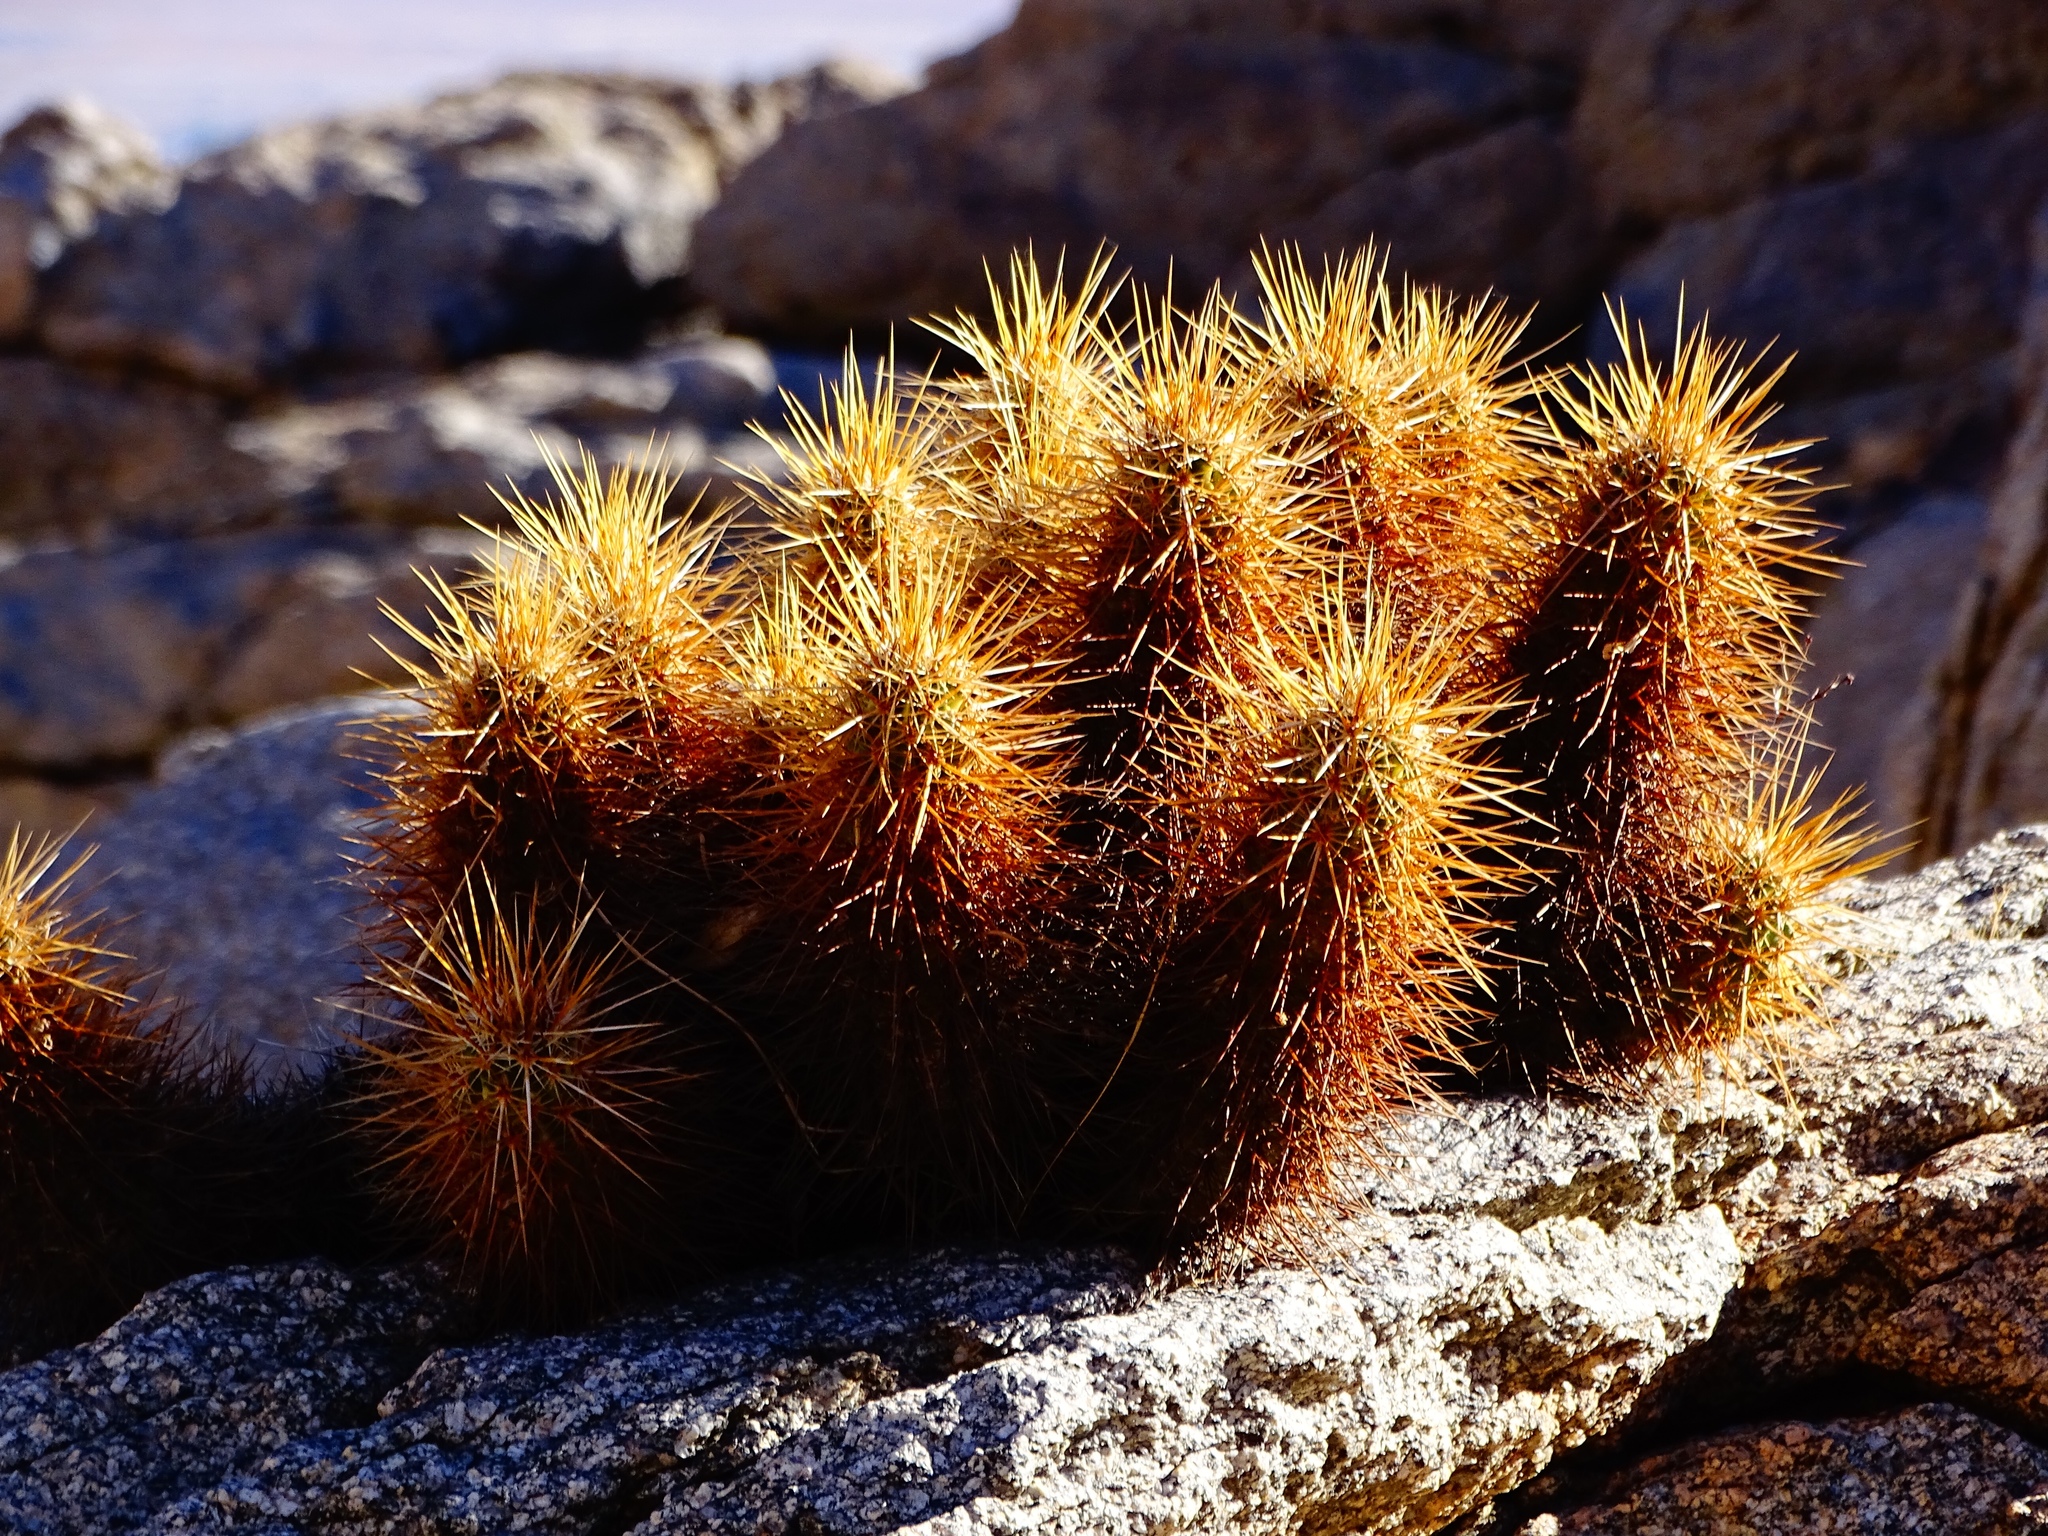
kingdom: Plantae
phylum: Tracheophyta
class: Magnoliopsida
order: Caryophyllales
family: Cactaceae
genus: Echinocereus
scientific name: Echinocereus engelmannii
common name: Engelmann's hedgehog cactus
